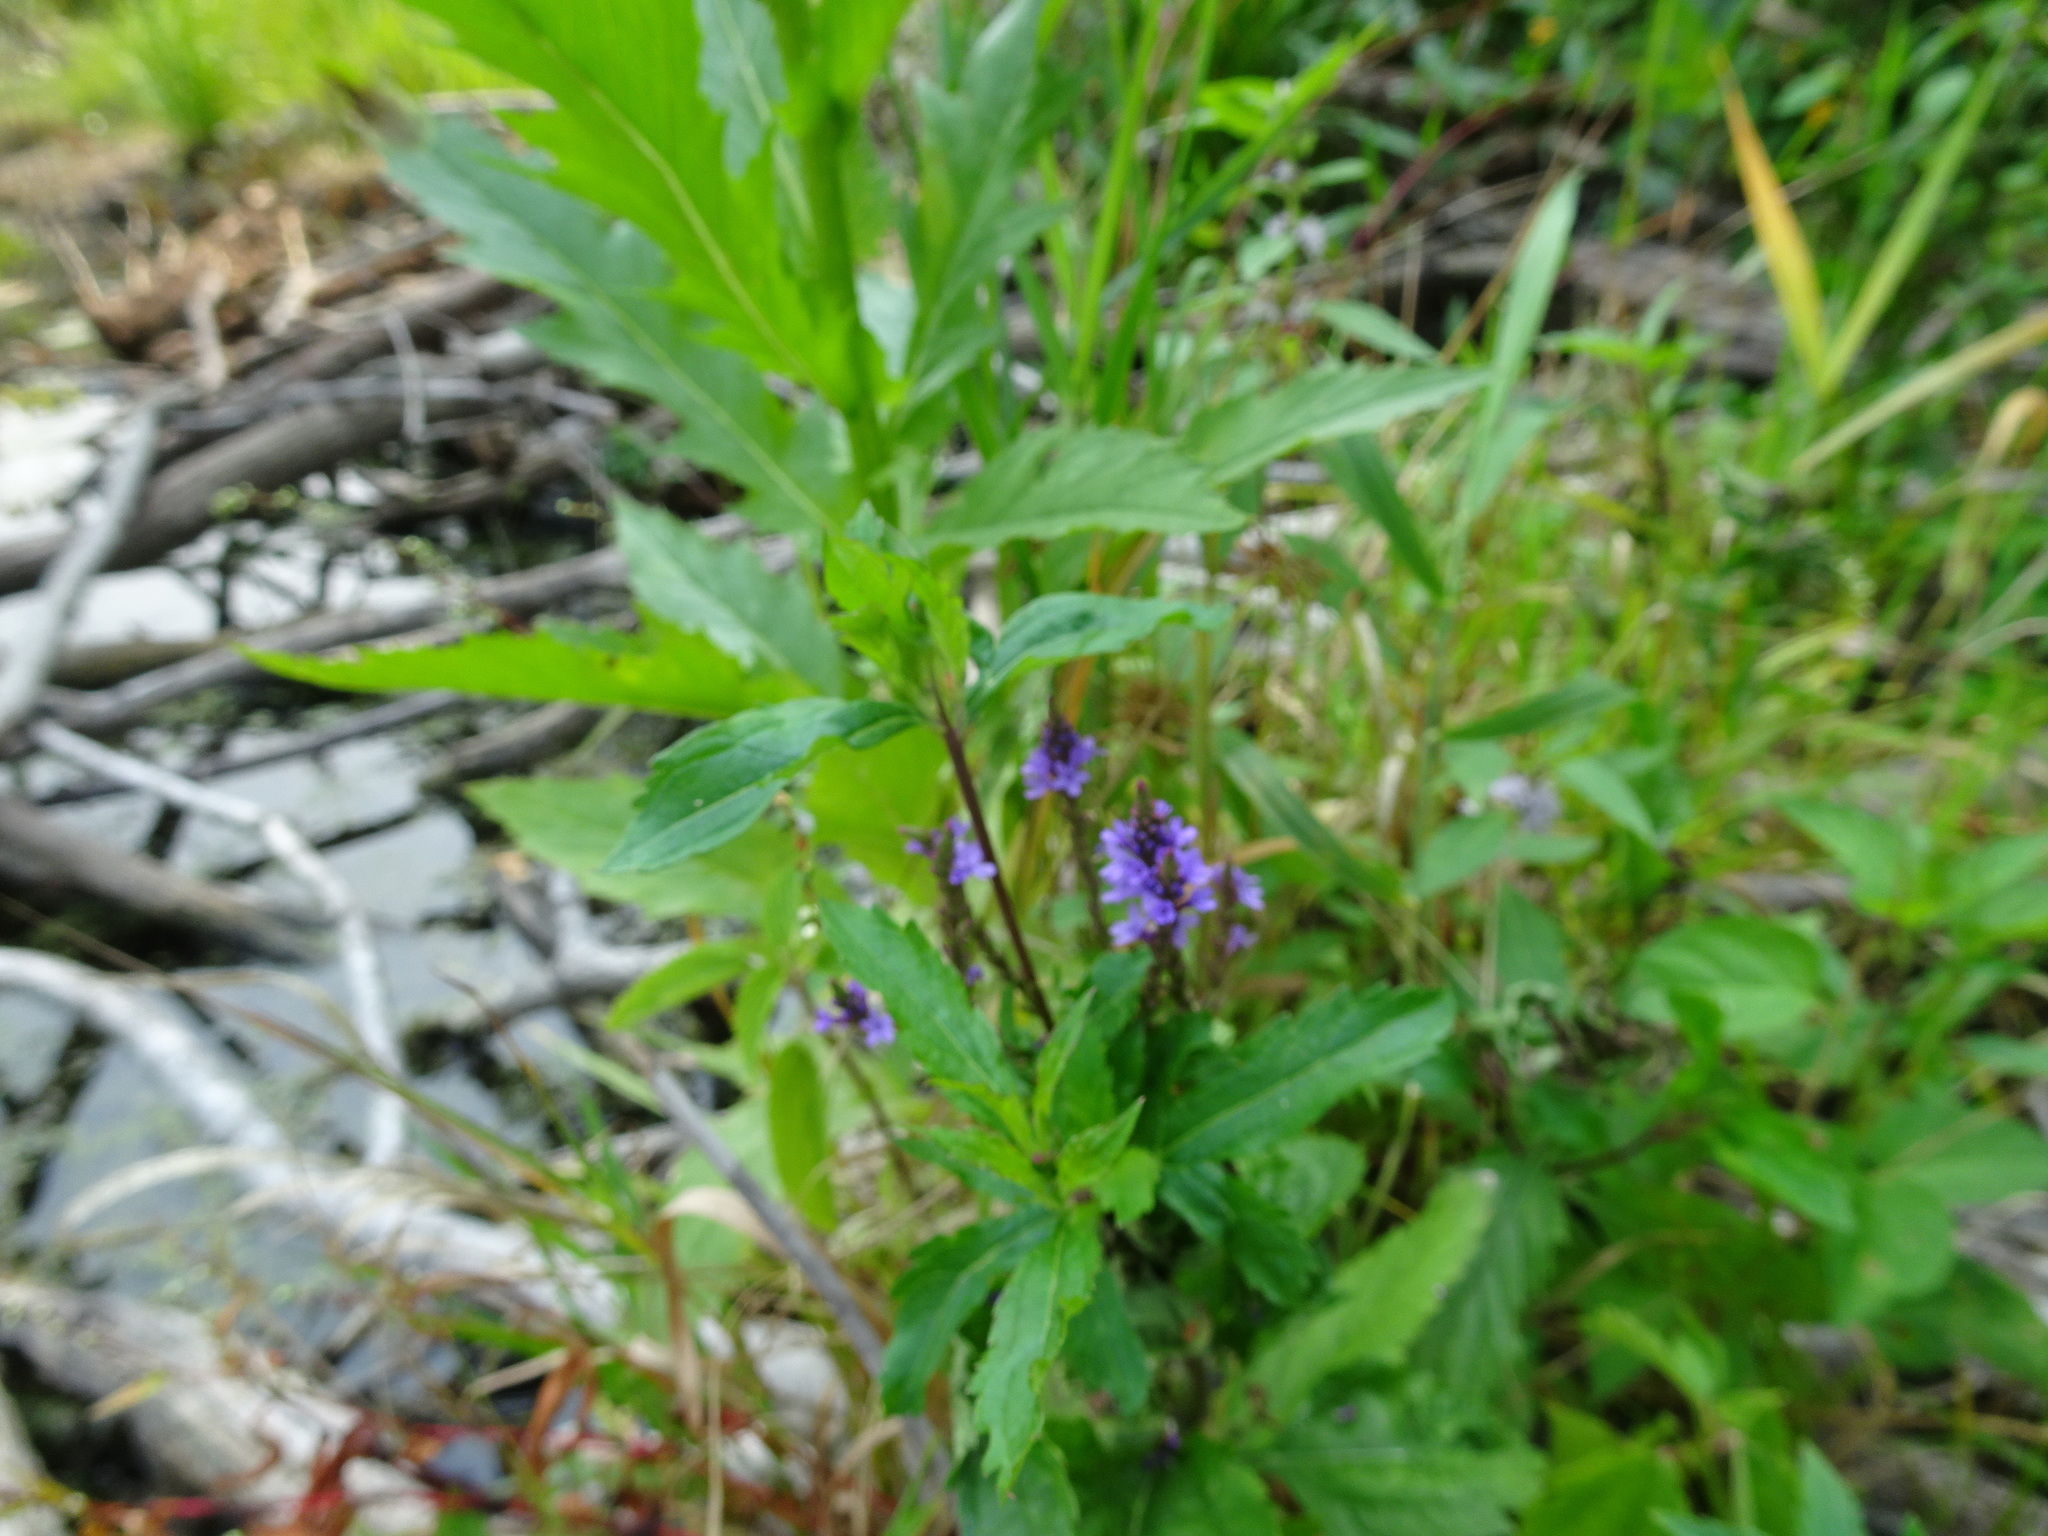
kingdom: Plantae
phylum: Tracheophyta
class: Magnoliopsida
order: Lamiales
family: Verbenaceae
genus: Verbena
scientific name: Verbena hastata
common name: American blue vervain
